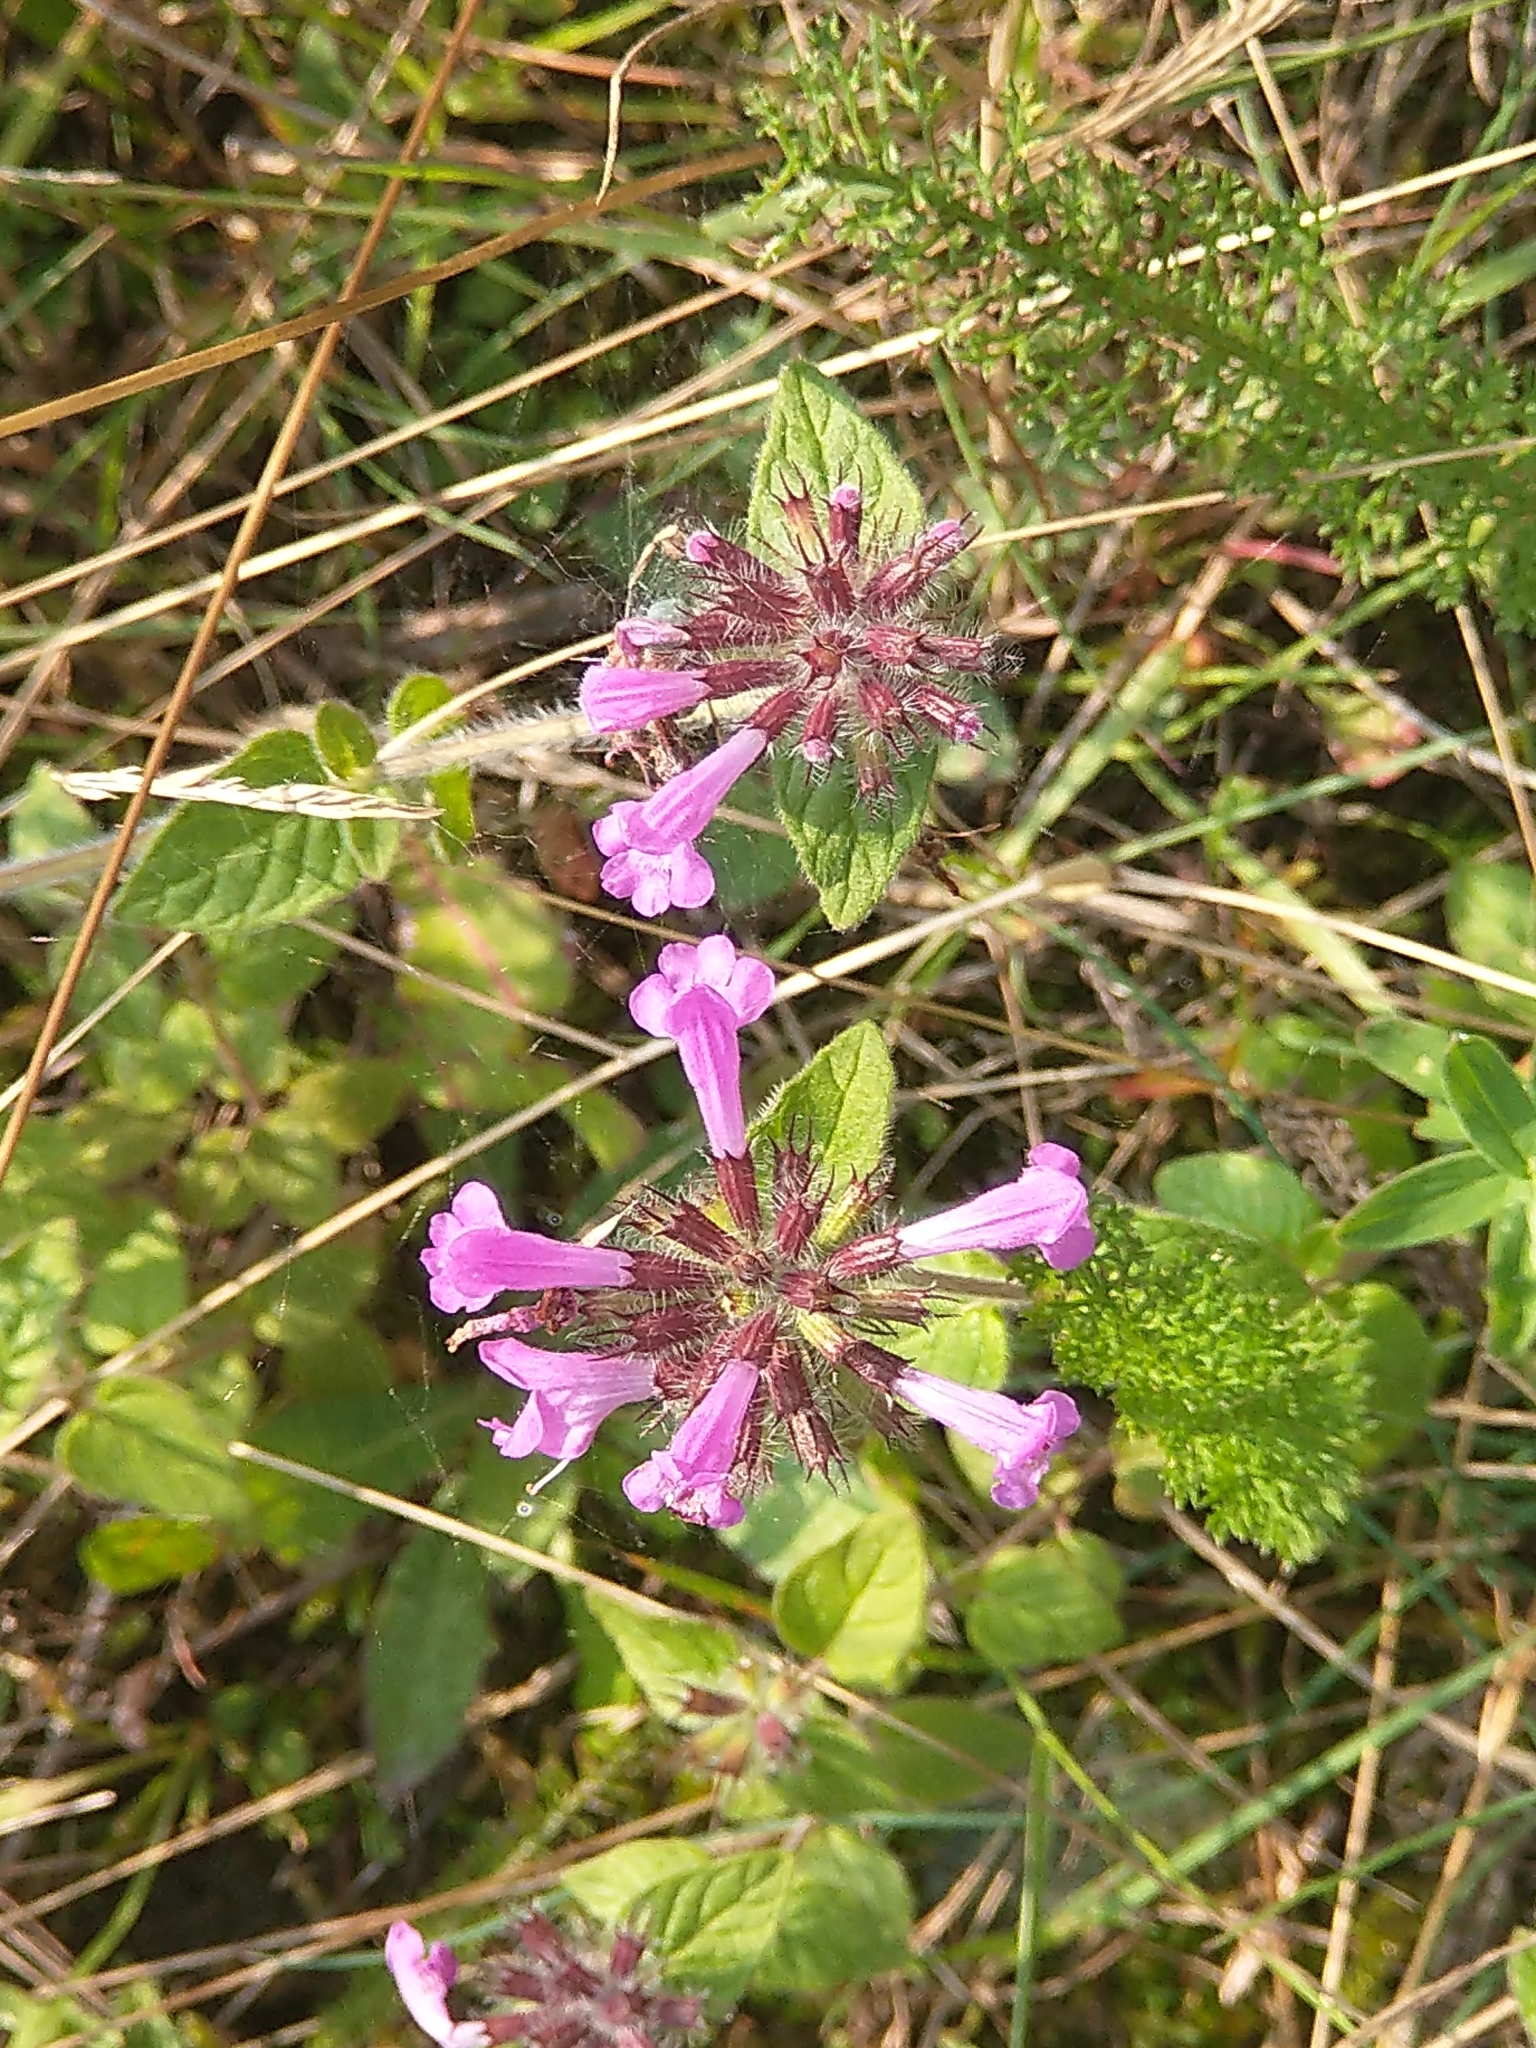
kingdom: Plantae
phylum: Tracheophyta
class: Magnoliopsida
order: Lamiales
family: Lamiaceae
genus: Clinopodium
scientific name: Clinopodium vulgare
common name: Wild basil
